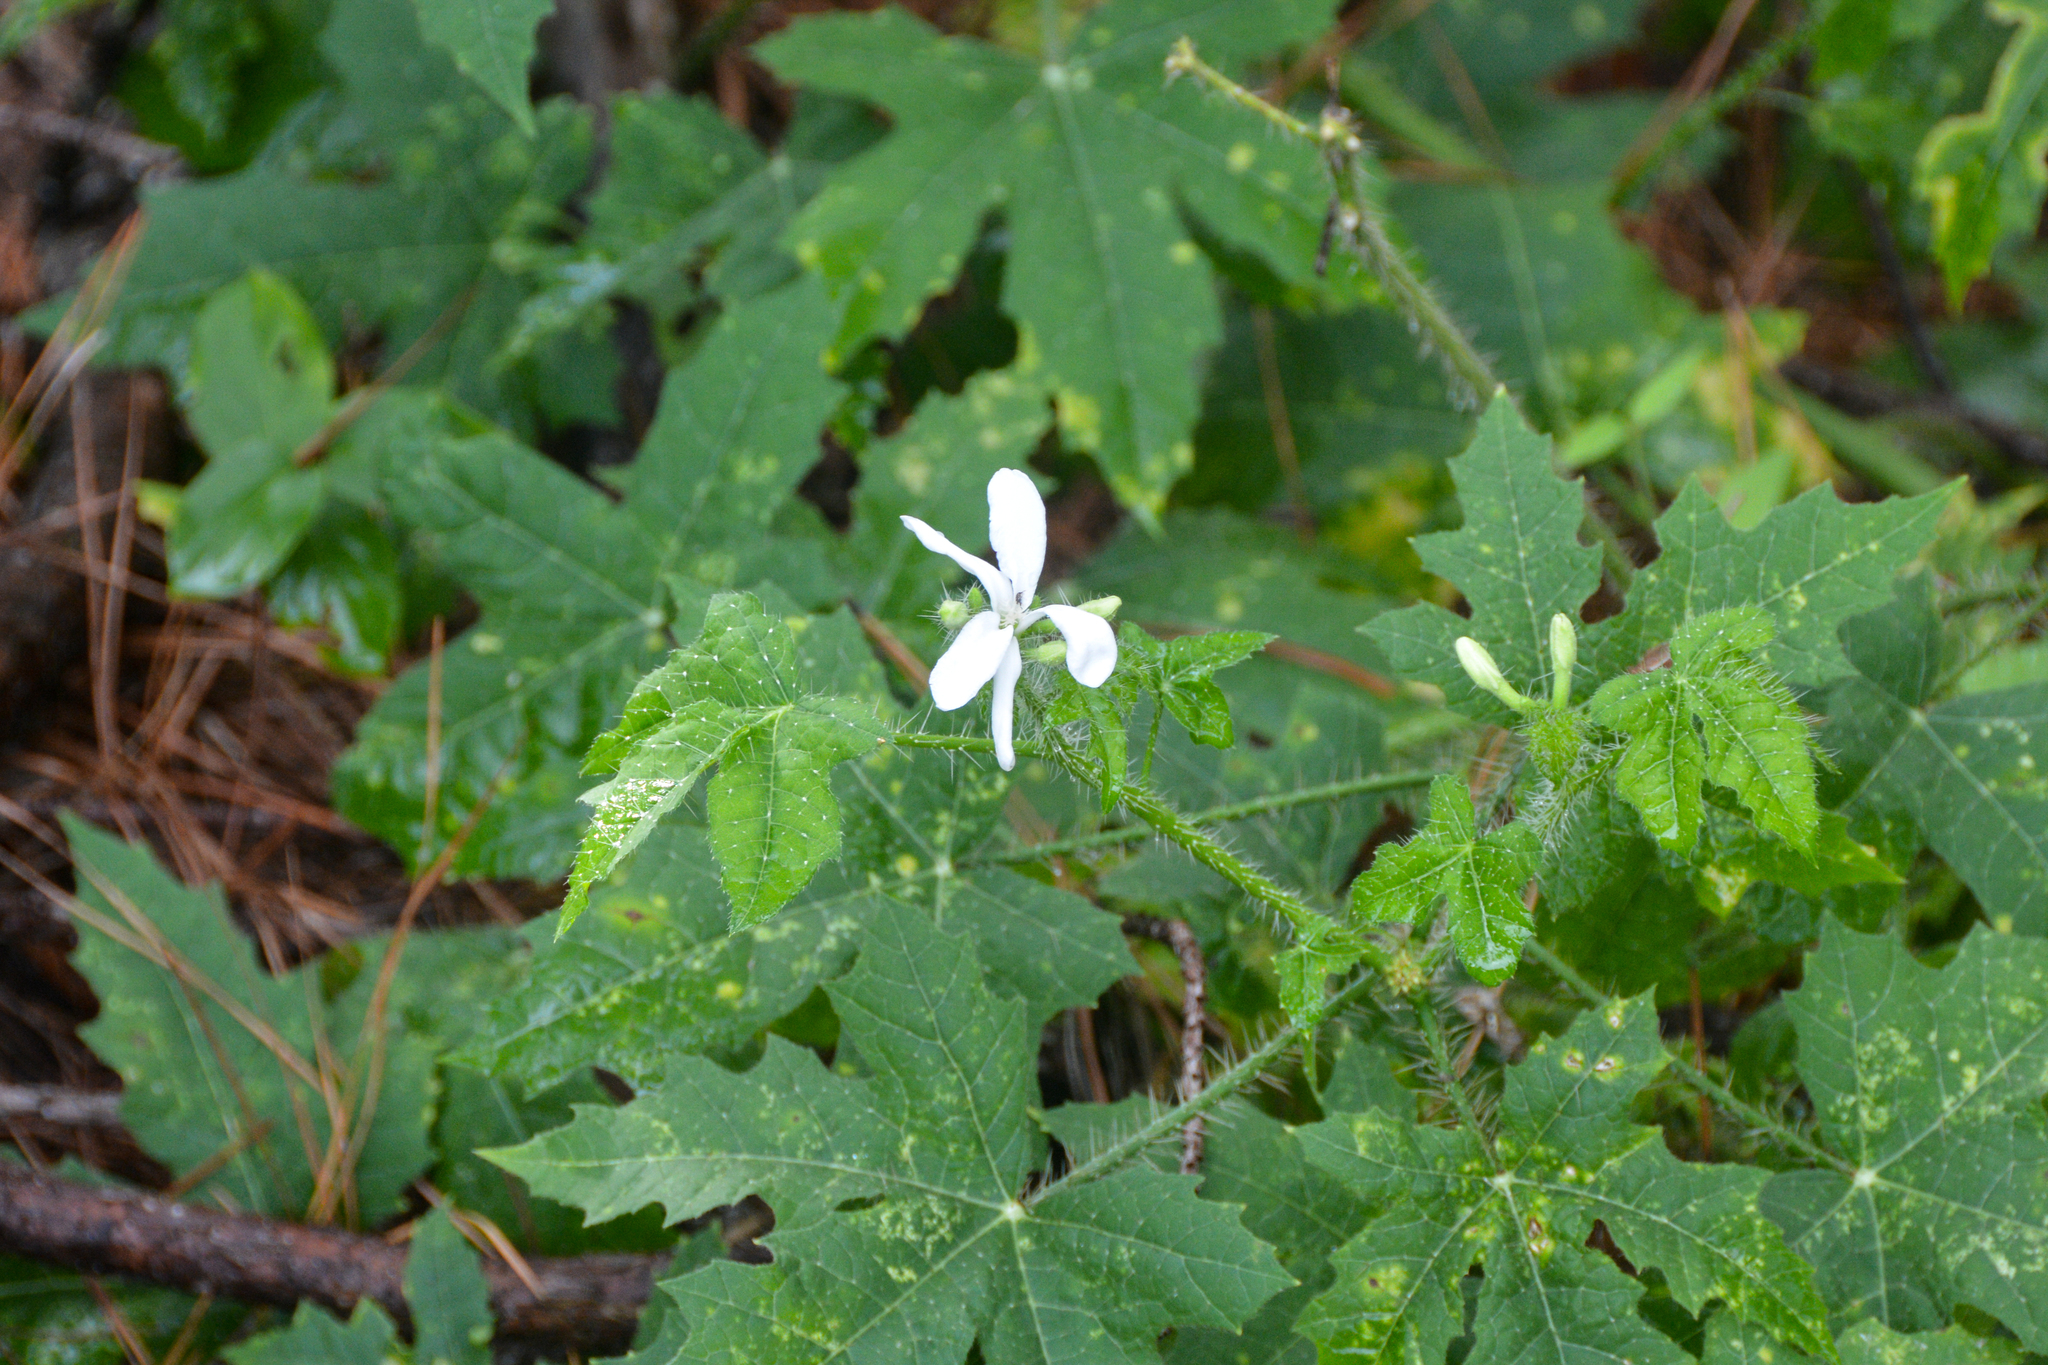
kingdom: Plantae
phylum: Tracheophyta
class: Magnoliopsida
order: Malpighiales
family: Euphorbiaceae
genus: Cnidoscolus
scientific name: Cnidoscolus texanus
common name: Texas bull-nettle
